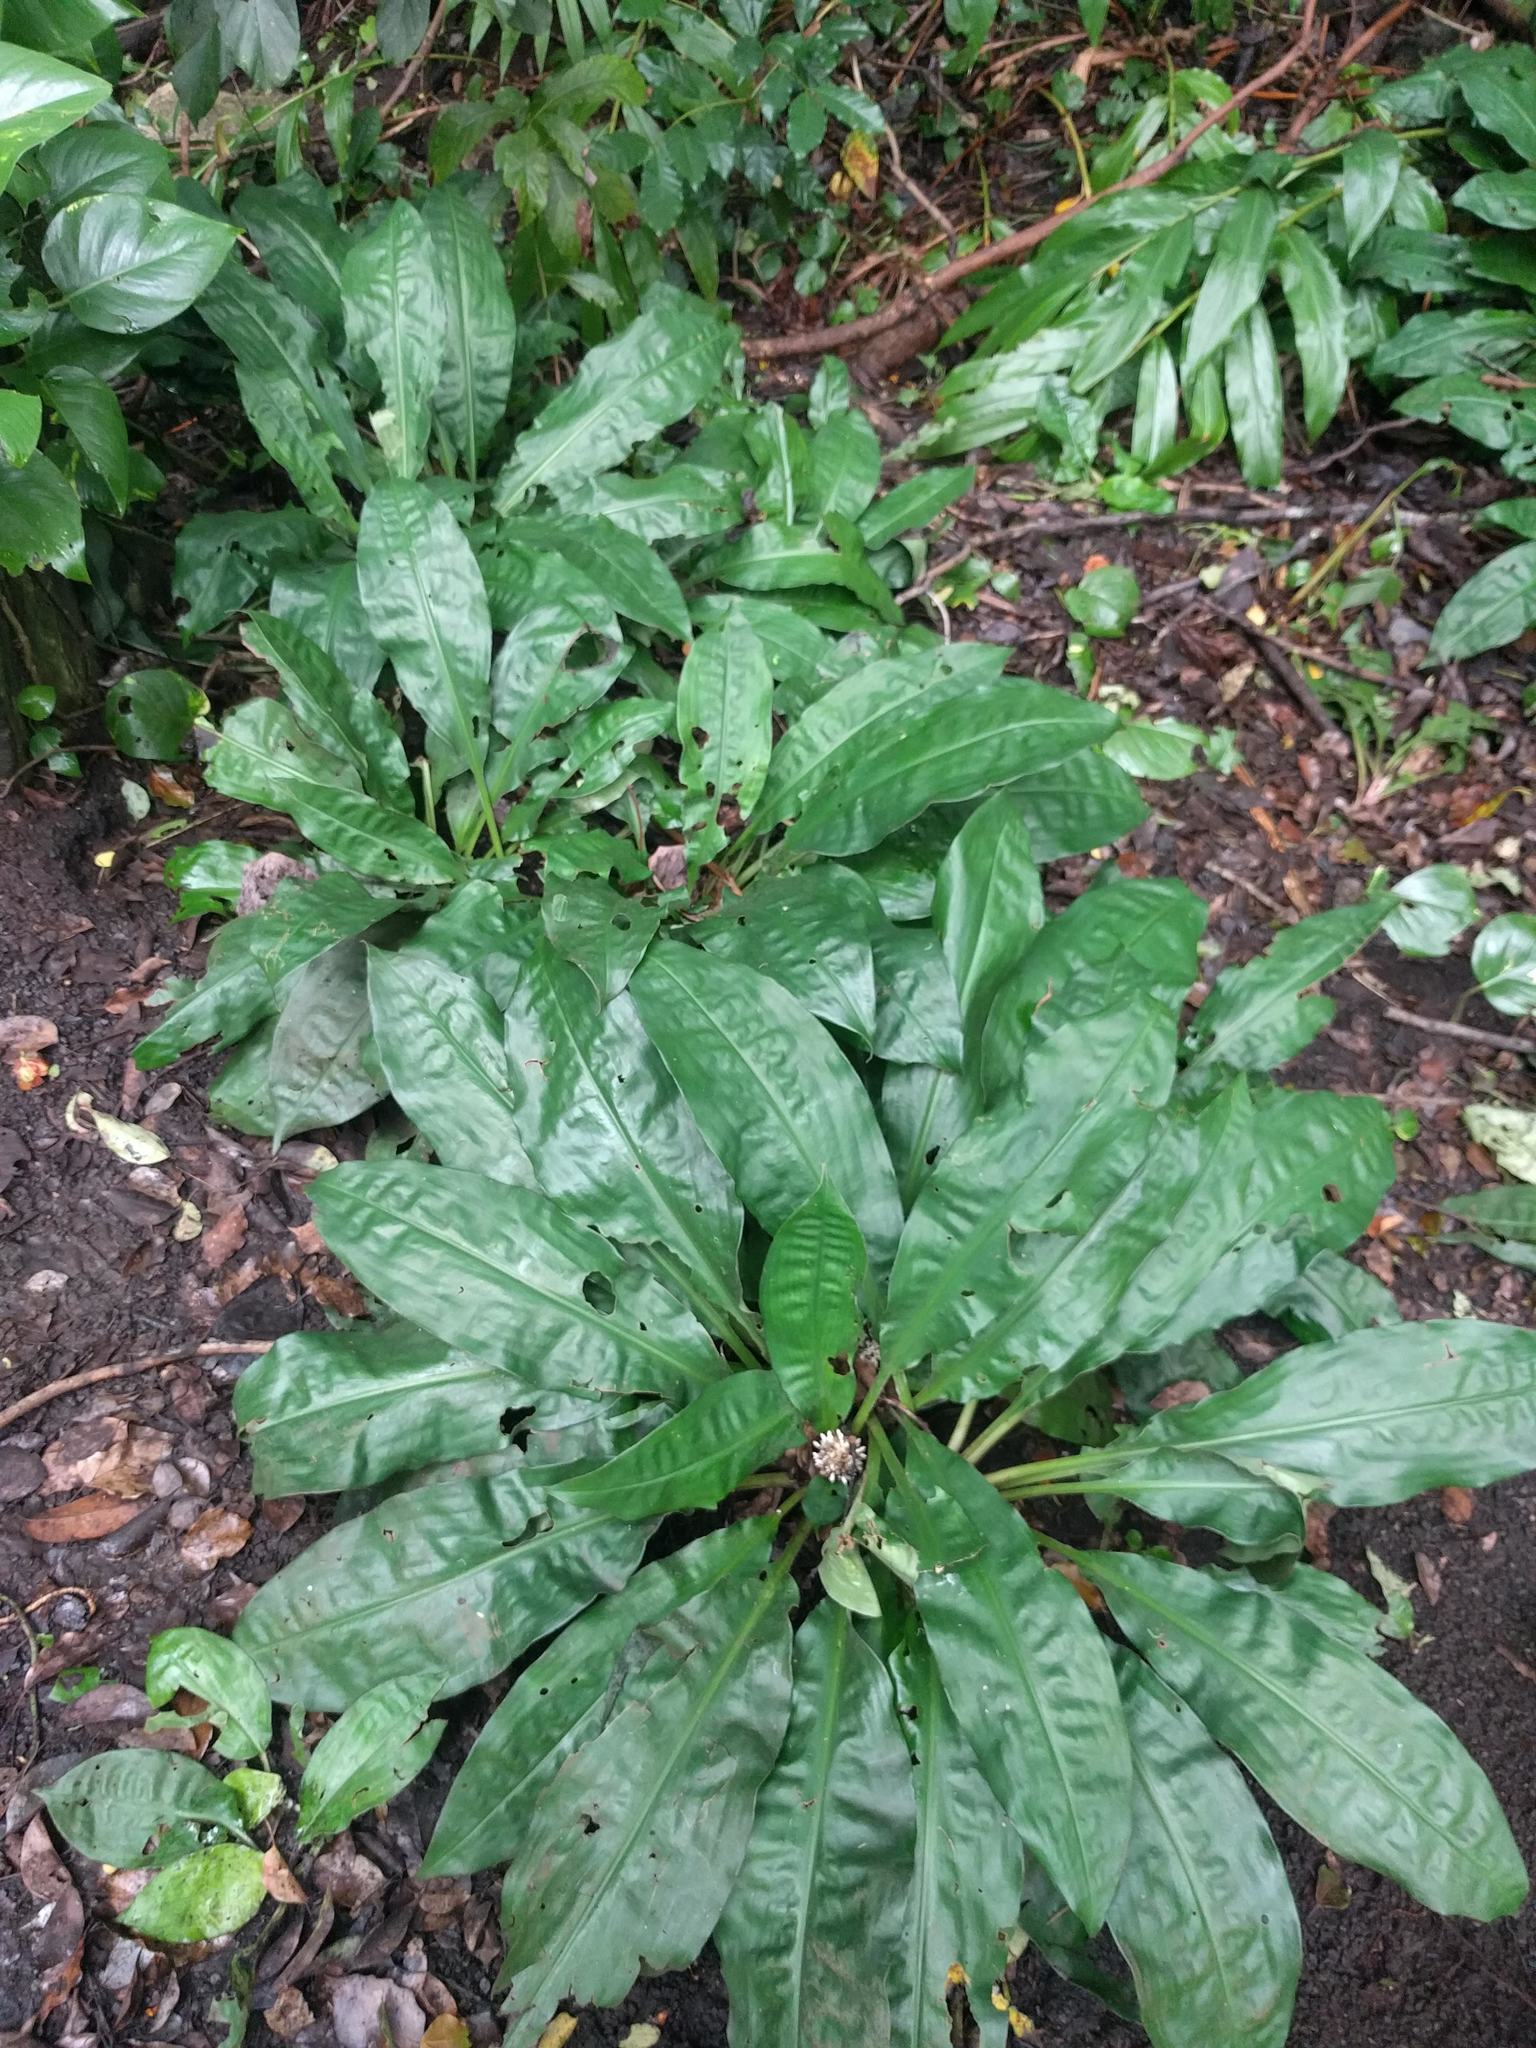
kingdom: Plantae
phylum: Tracheophyta
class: Liliopsida
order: Commelinales
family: Commelinaceae
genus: Palisota
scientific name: Palisota bracteosa
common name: Palisota
